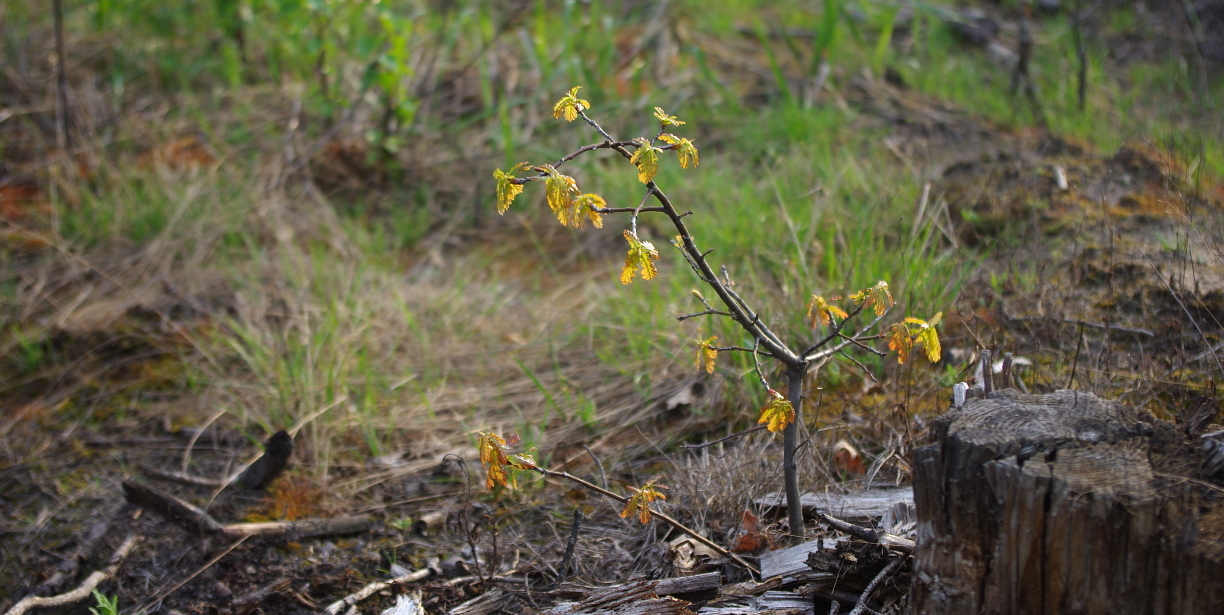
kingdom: Plantae
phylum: Tracheophyta
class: Magnoliopsida
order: Fagales
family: Fagaceae
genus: Quercus
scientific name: Quercus robur
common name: Pedunculate oak
